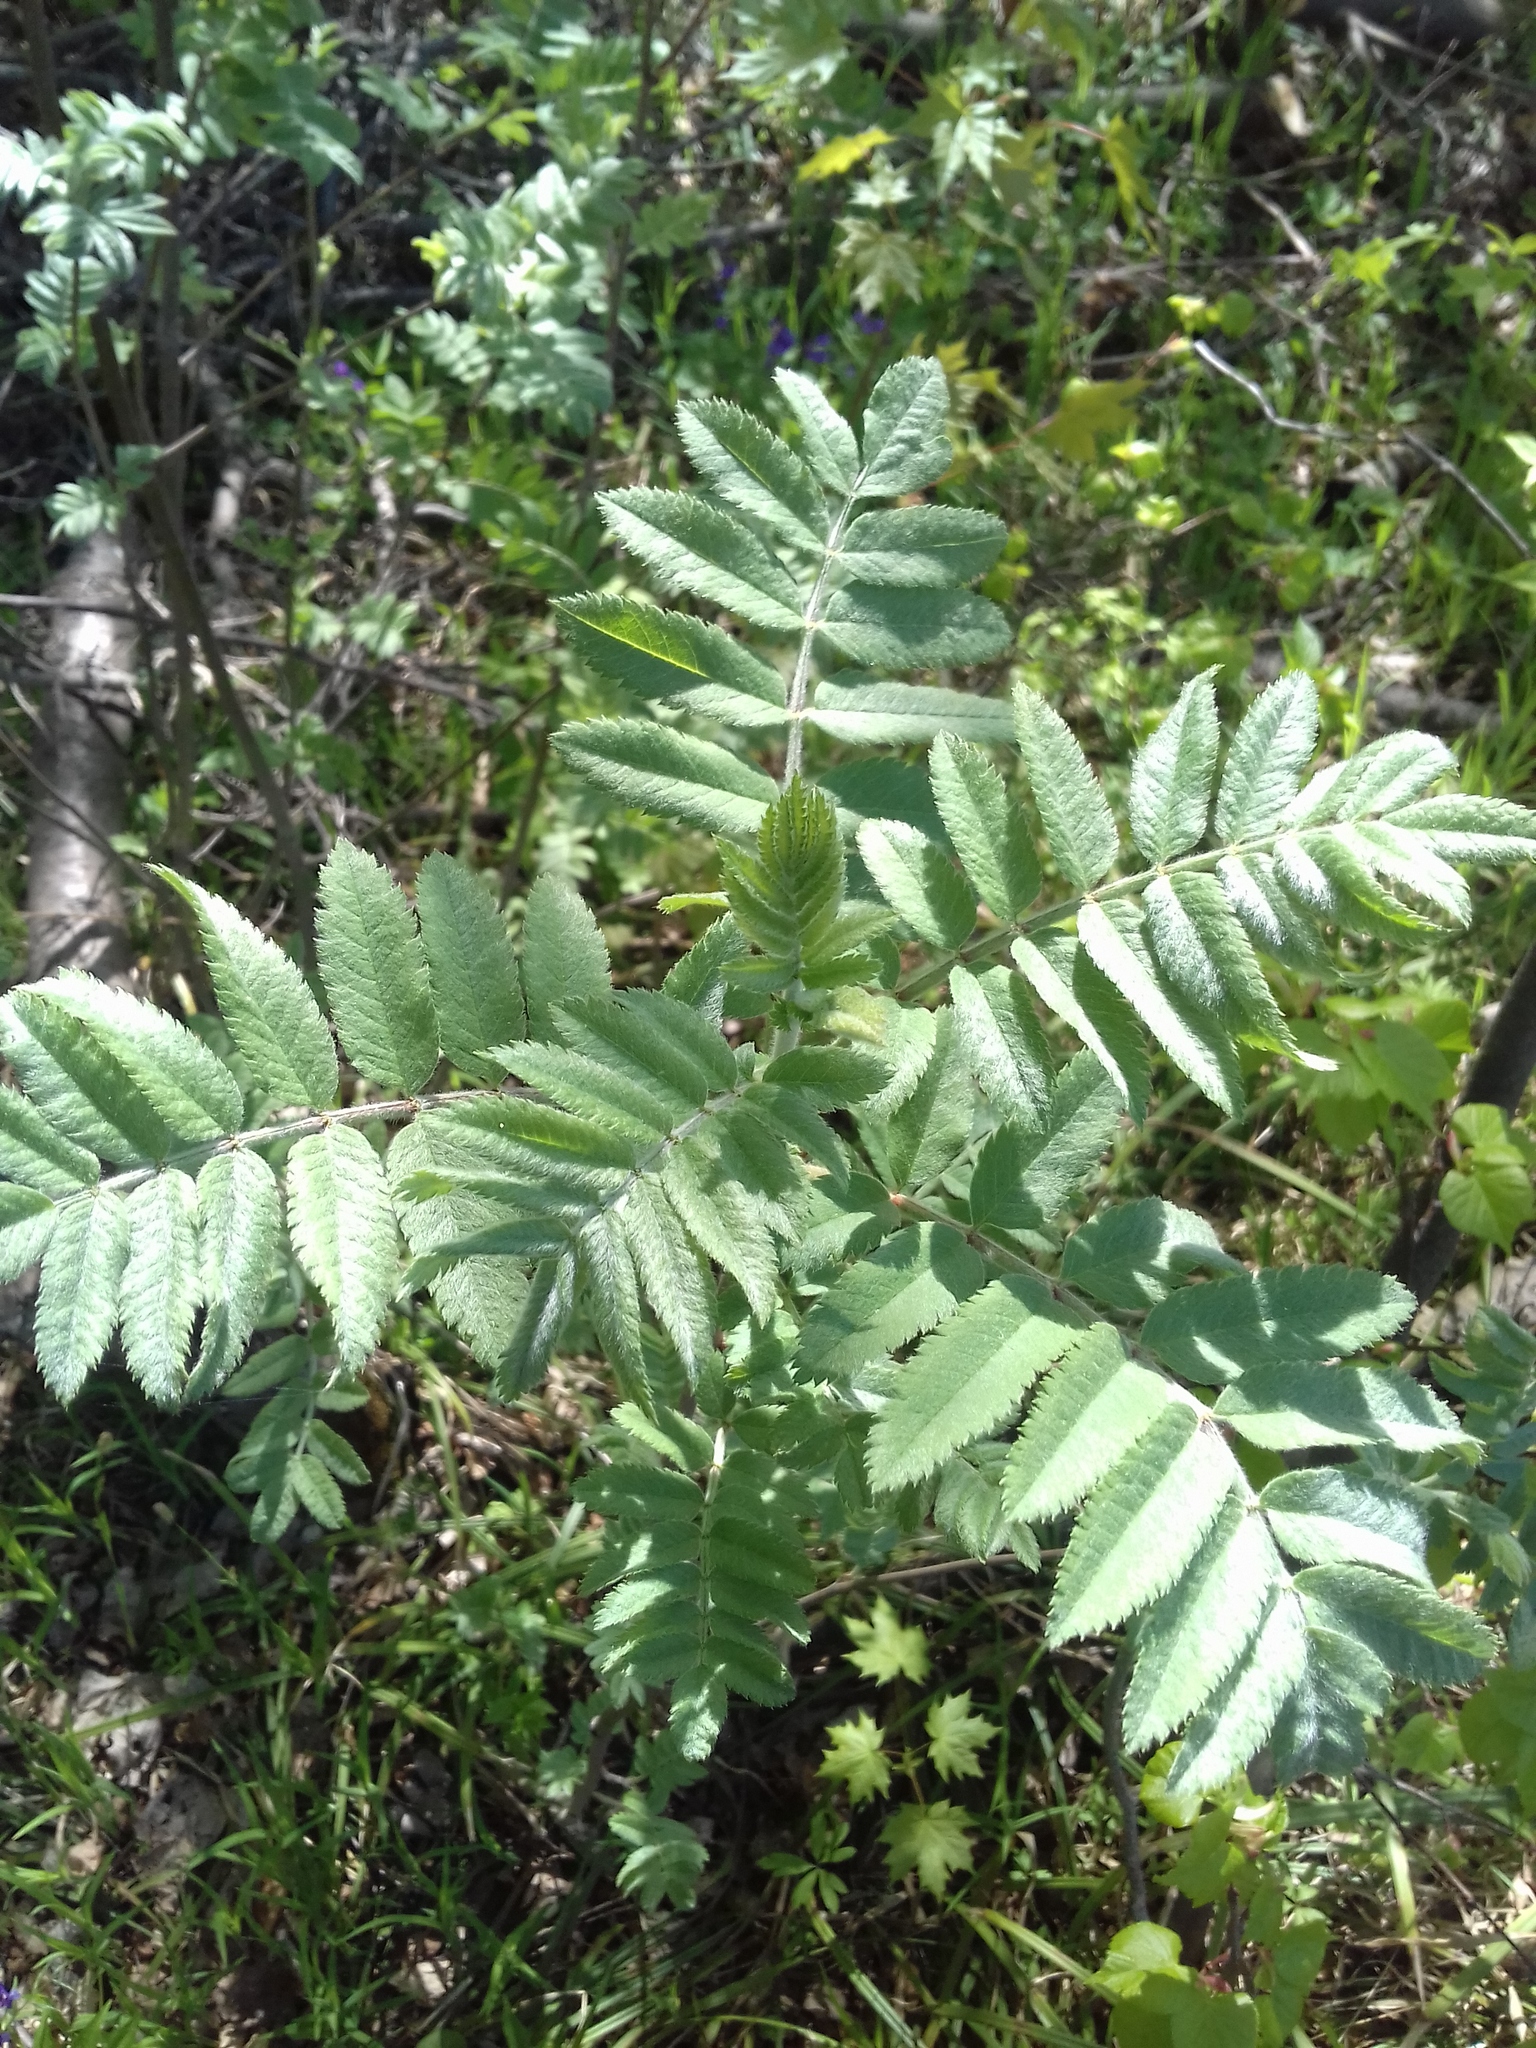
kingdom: Plantae
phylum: Tracheophyta
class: Magnoliopsida
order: Rosales
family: Rosaceae
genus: Sorbus
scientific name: Sorbus aucuparia
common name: Rowan
